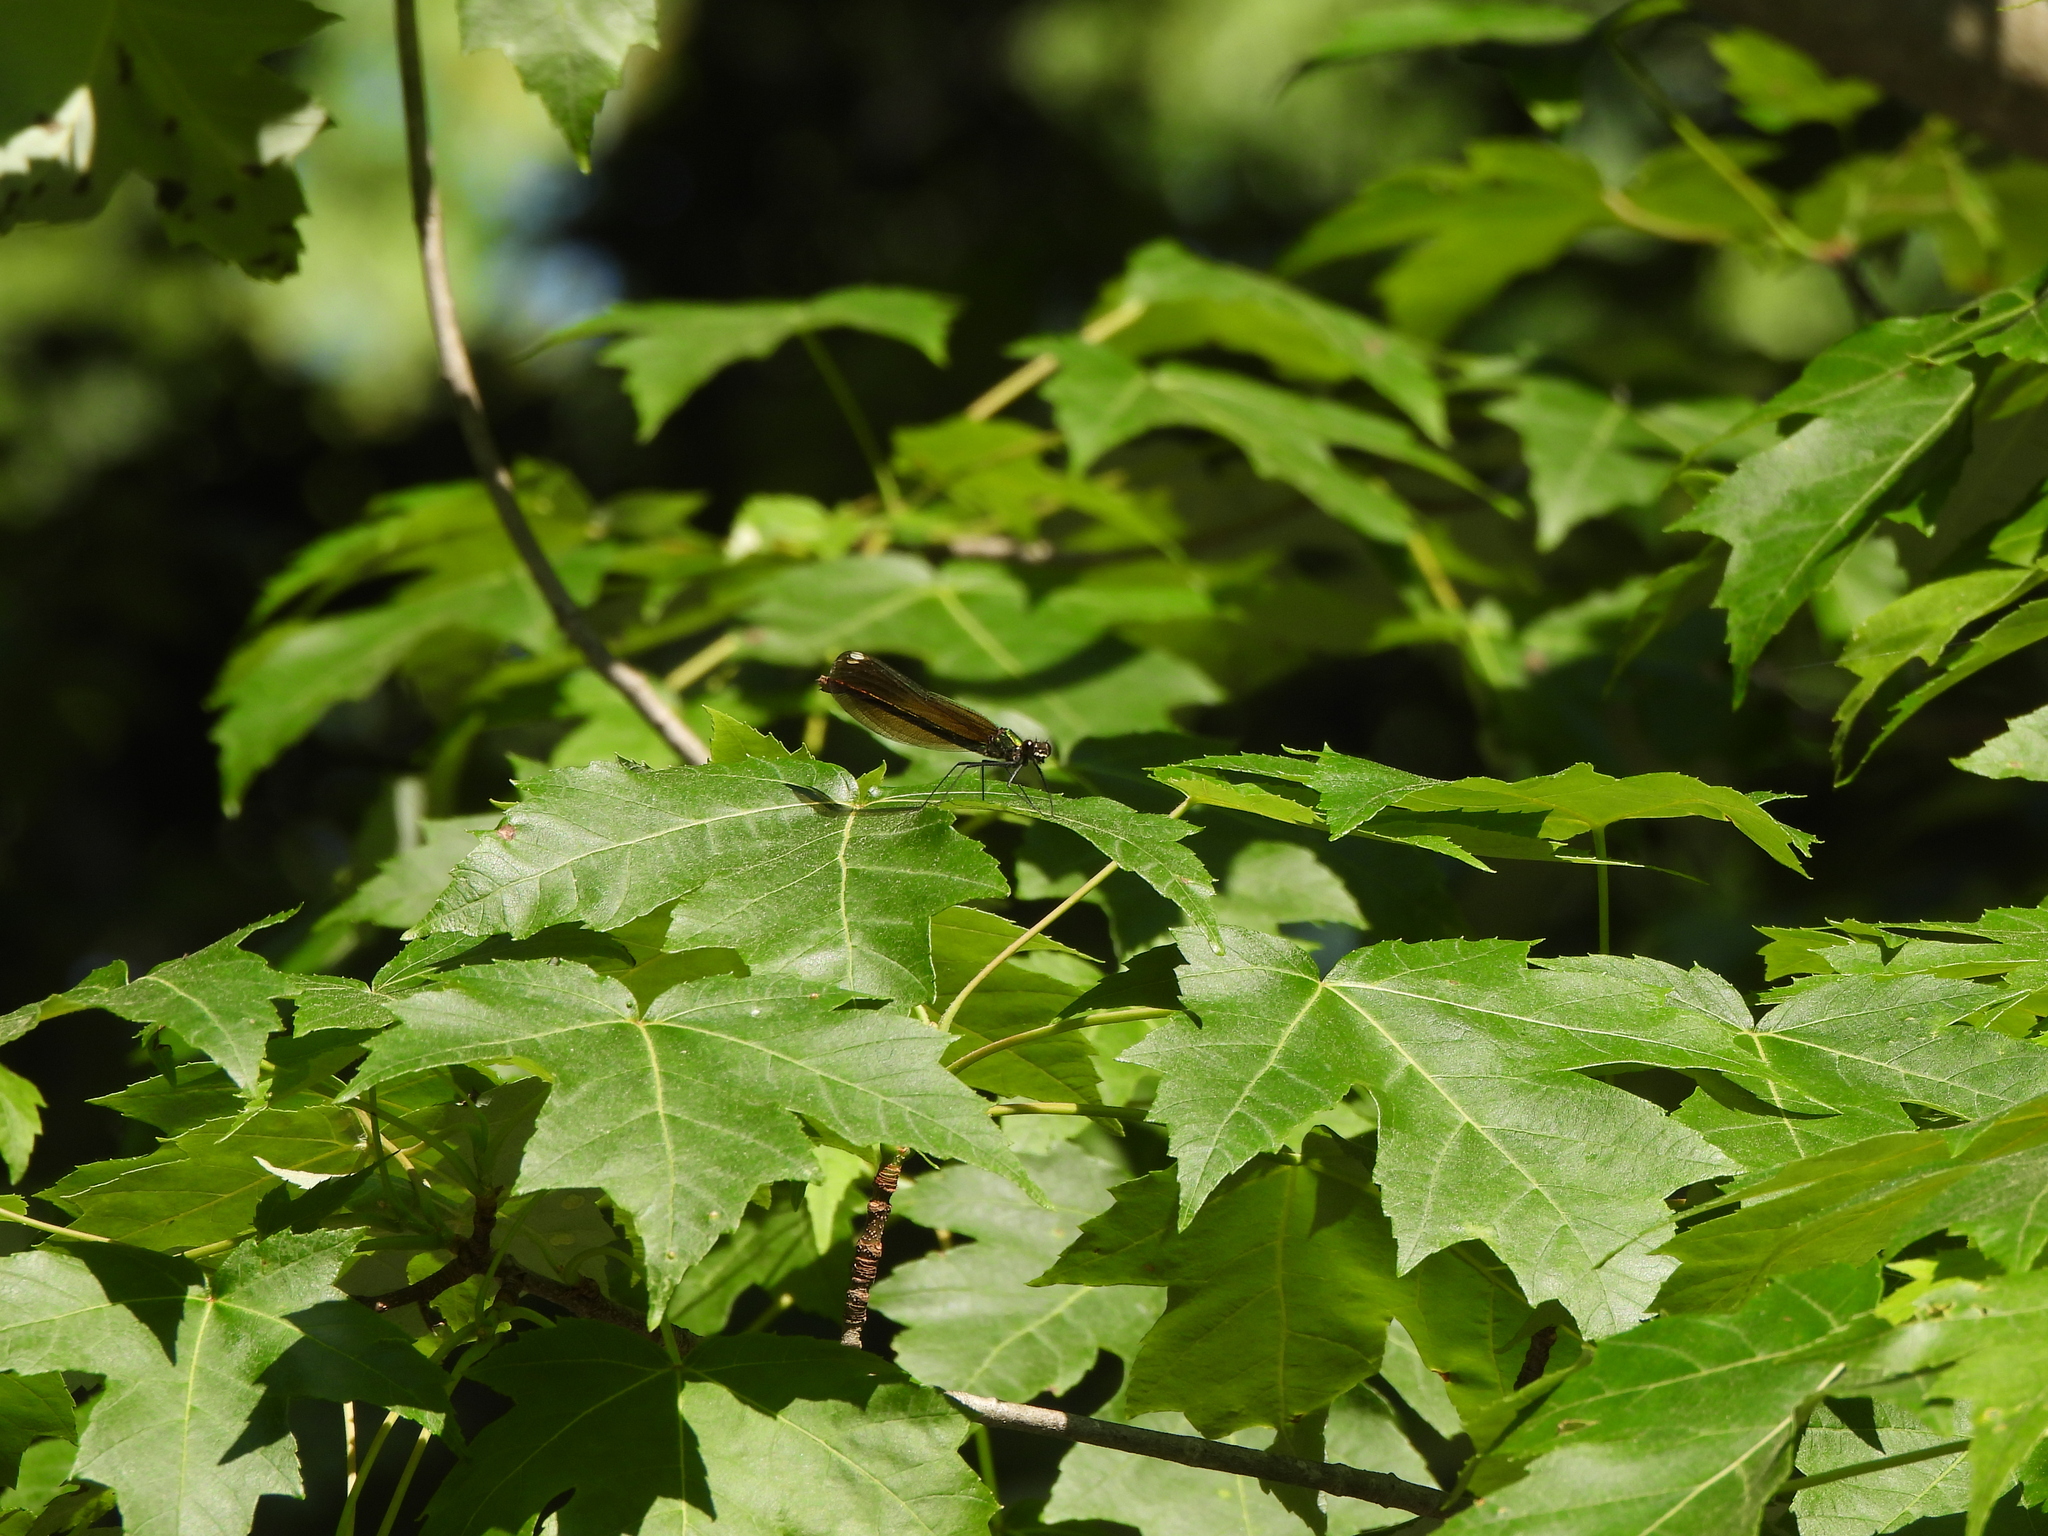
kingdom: Animalia
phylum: Arthropoda
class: Insecta
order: Odonata
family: Calopterygidae
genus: Calopteryx
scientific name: Calopteryx maculata
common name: Ebony jewelwing
